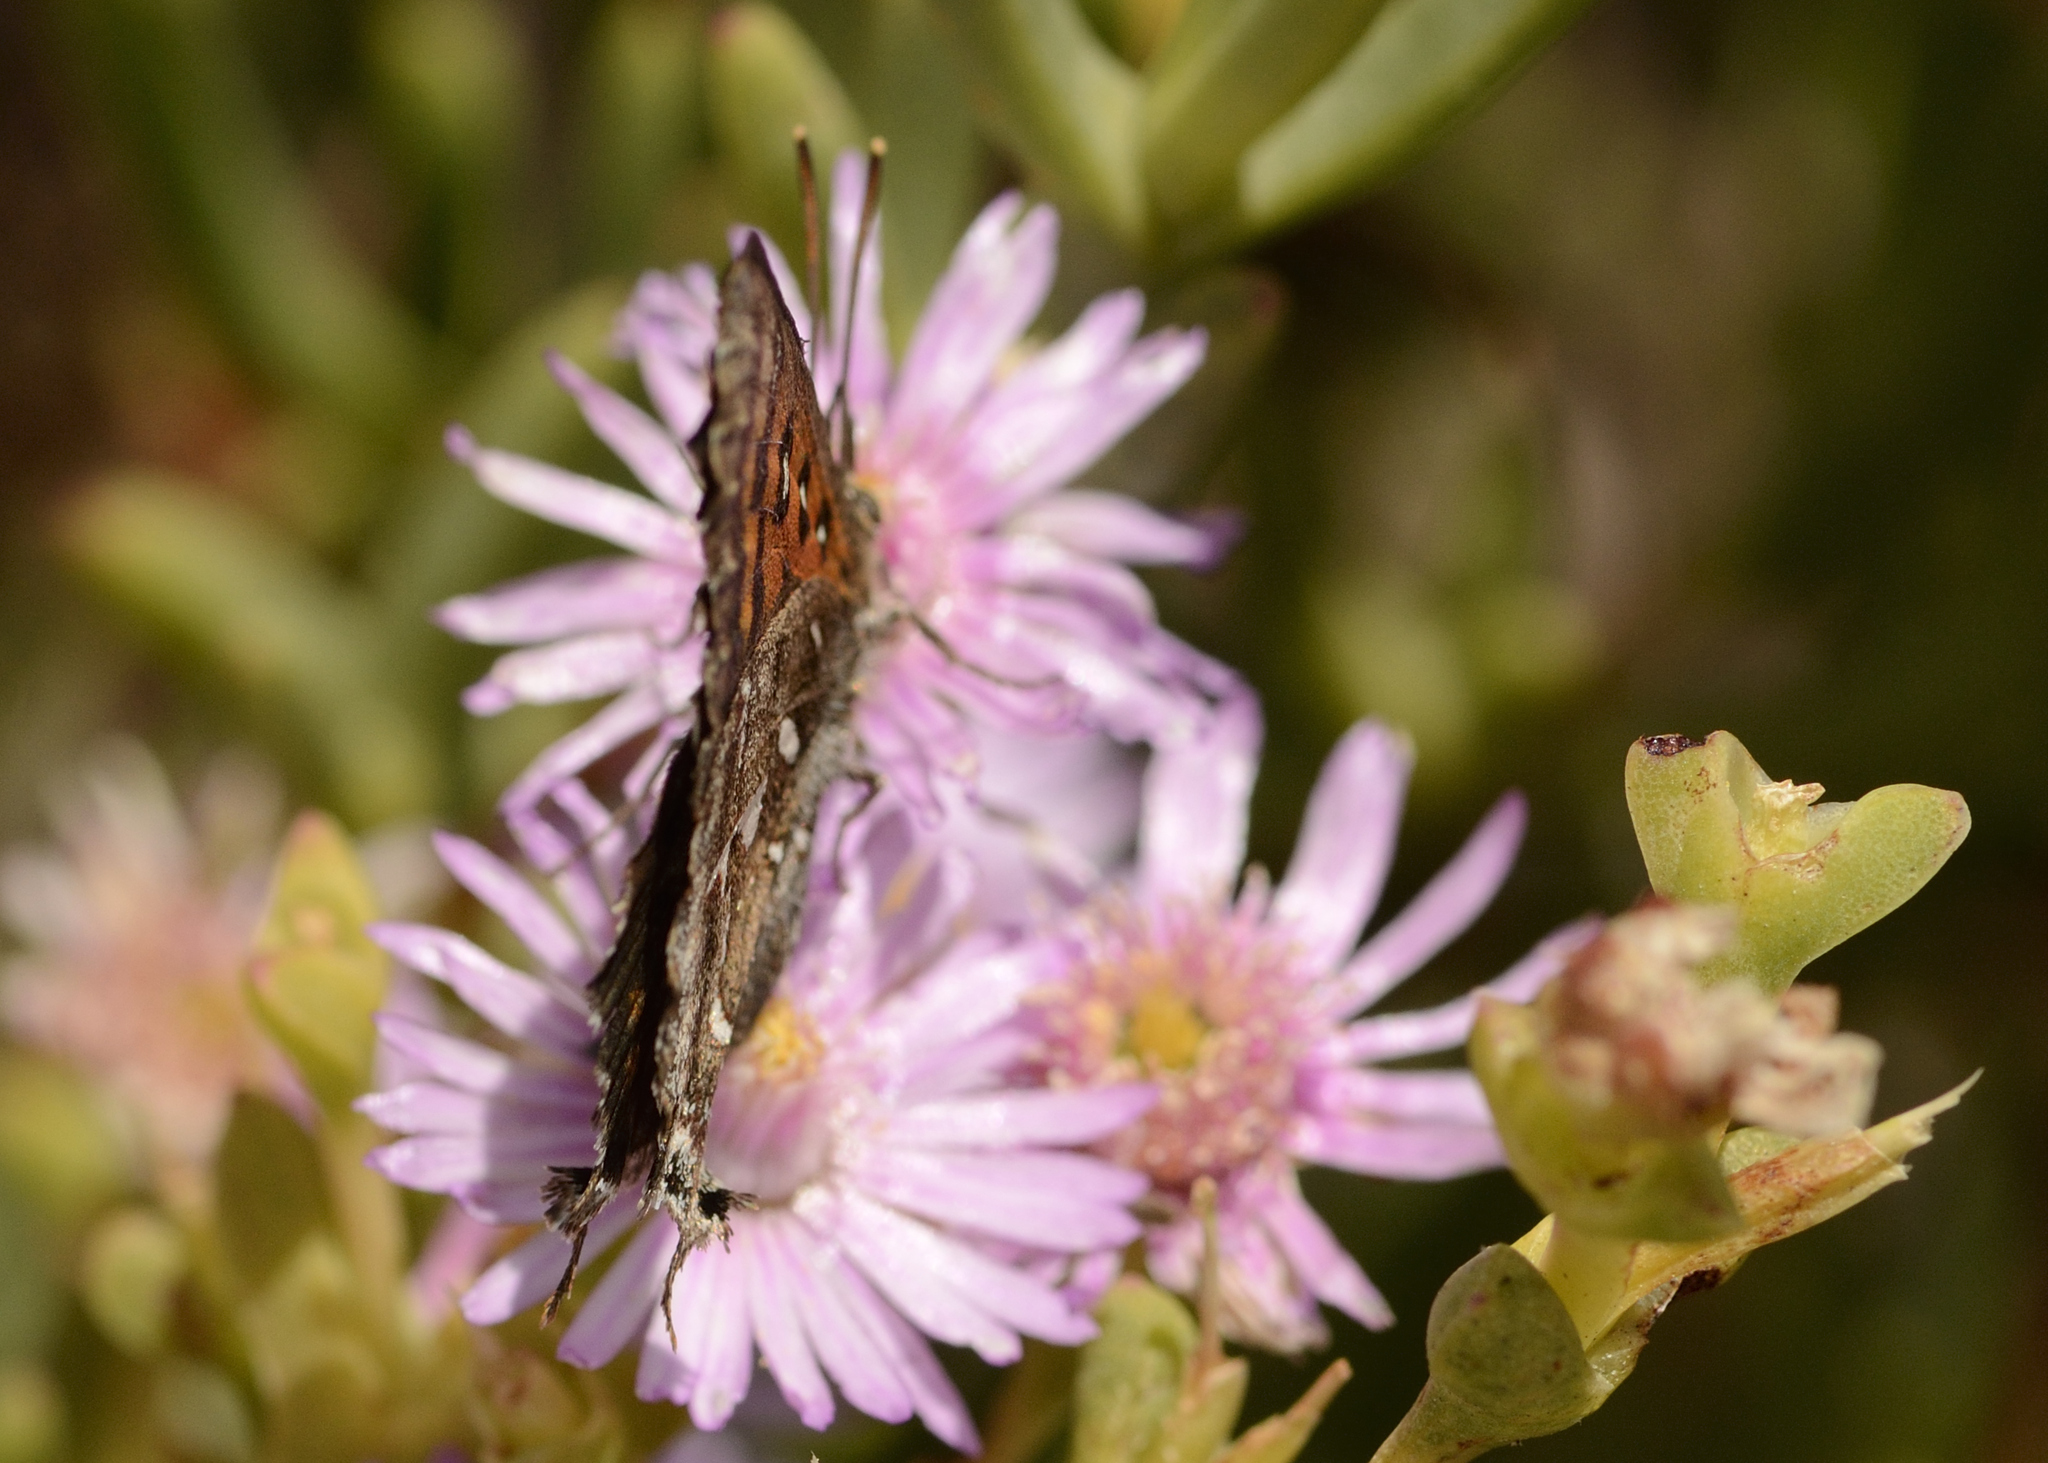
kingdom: Animalia
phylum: Arthropoda
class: Insecta
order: Lepidoptera
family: Lycaenidae
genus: Phasis
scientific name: Phasis thero
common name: Silver arrowhead
